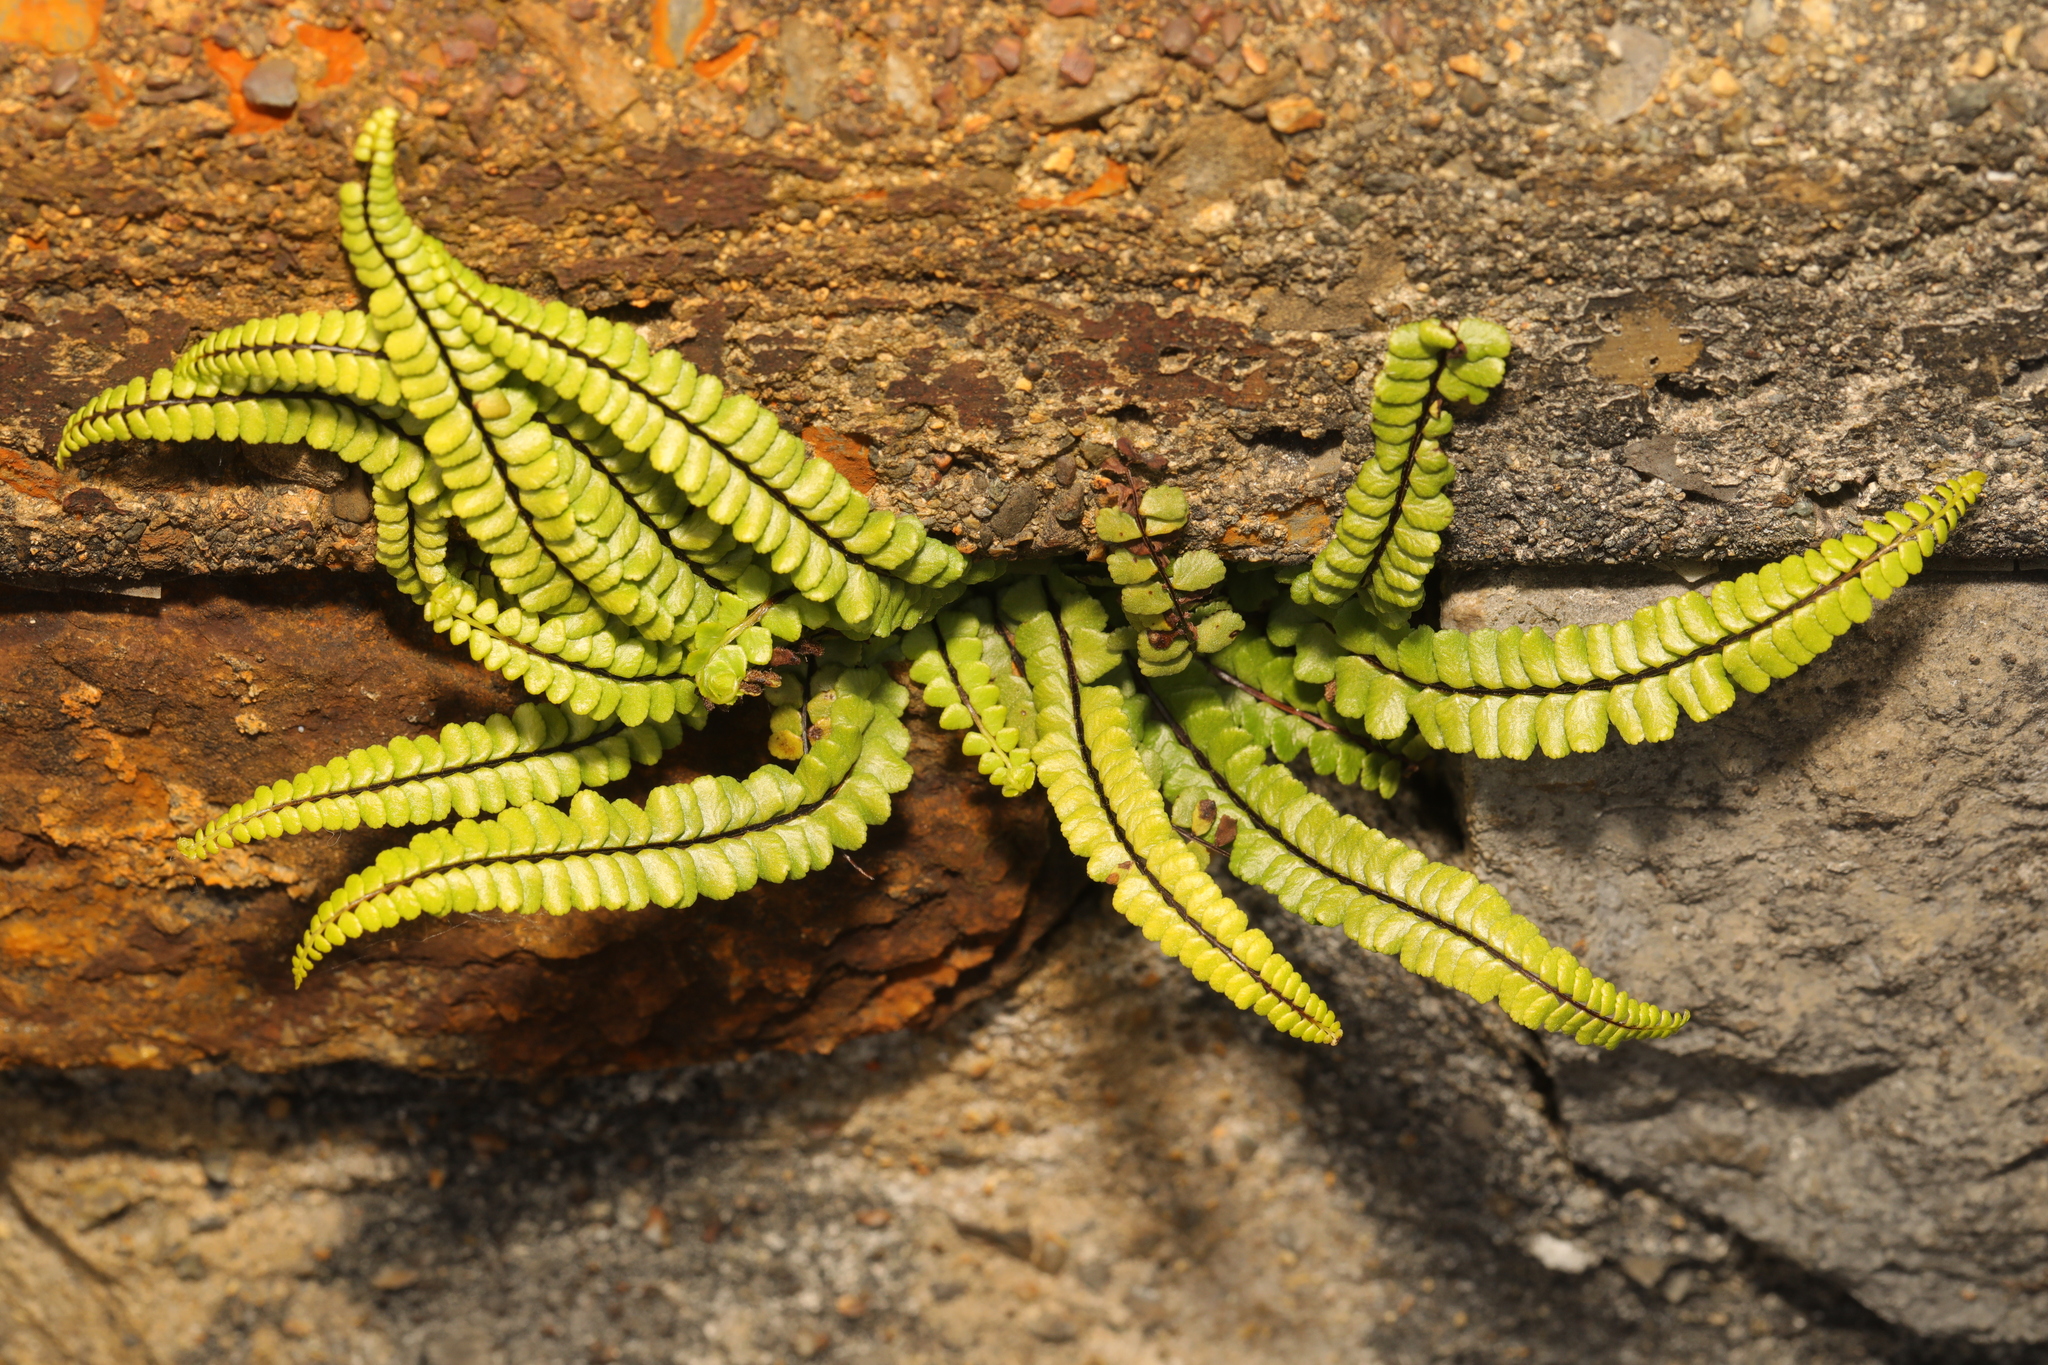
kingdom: Plantae
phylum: Tracheophyta
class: Polypodiopsida
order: Polypodiales
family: Aspleniaceae
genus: Asplenium
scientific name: Asplenium trichomanes
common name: Maidenhair spleenwort
